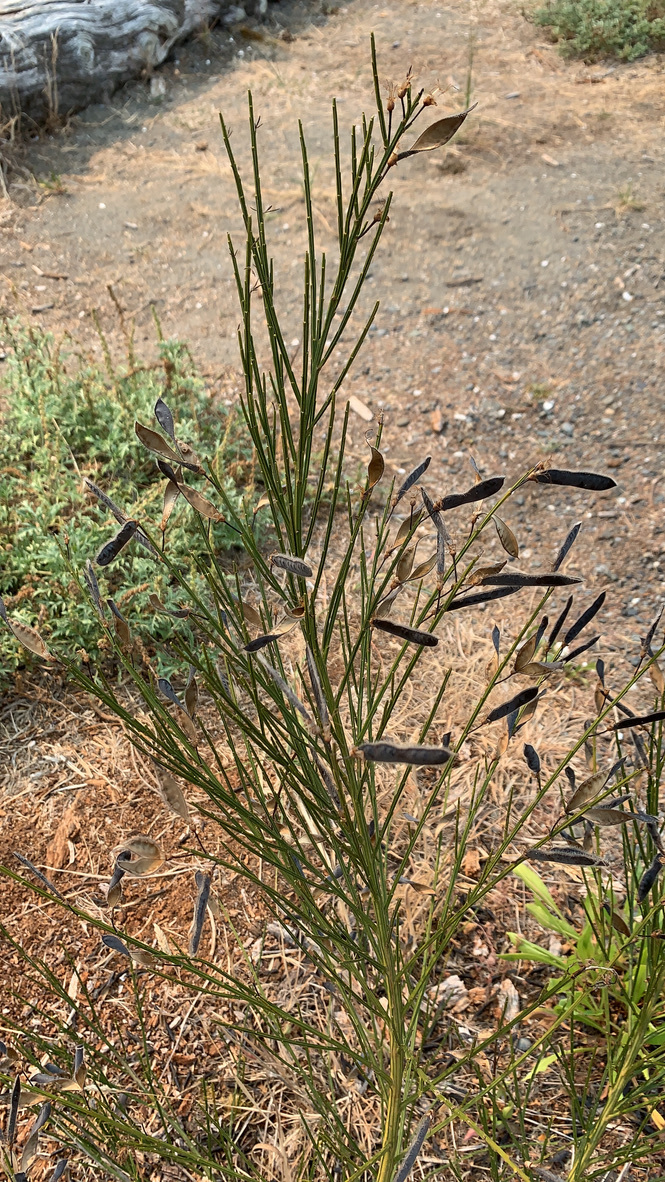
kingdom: Plantae
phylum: Tracheophyta
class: Magnoliopsida
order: Fabales
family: Fabaceae
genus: Cytisus
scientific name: Cytisus scoparius
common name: Scotch broom
